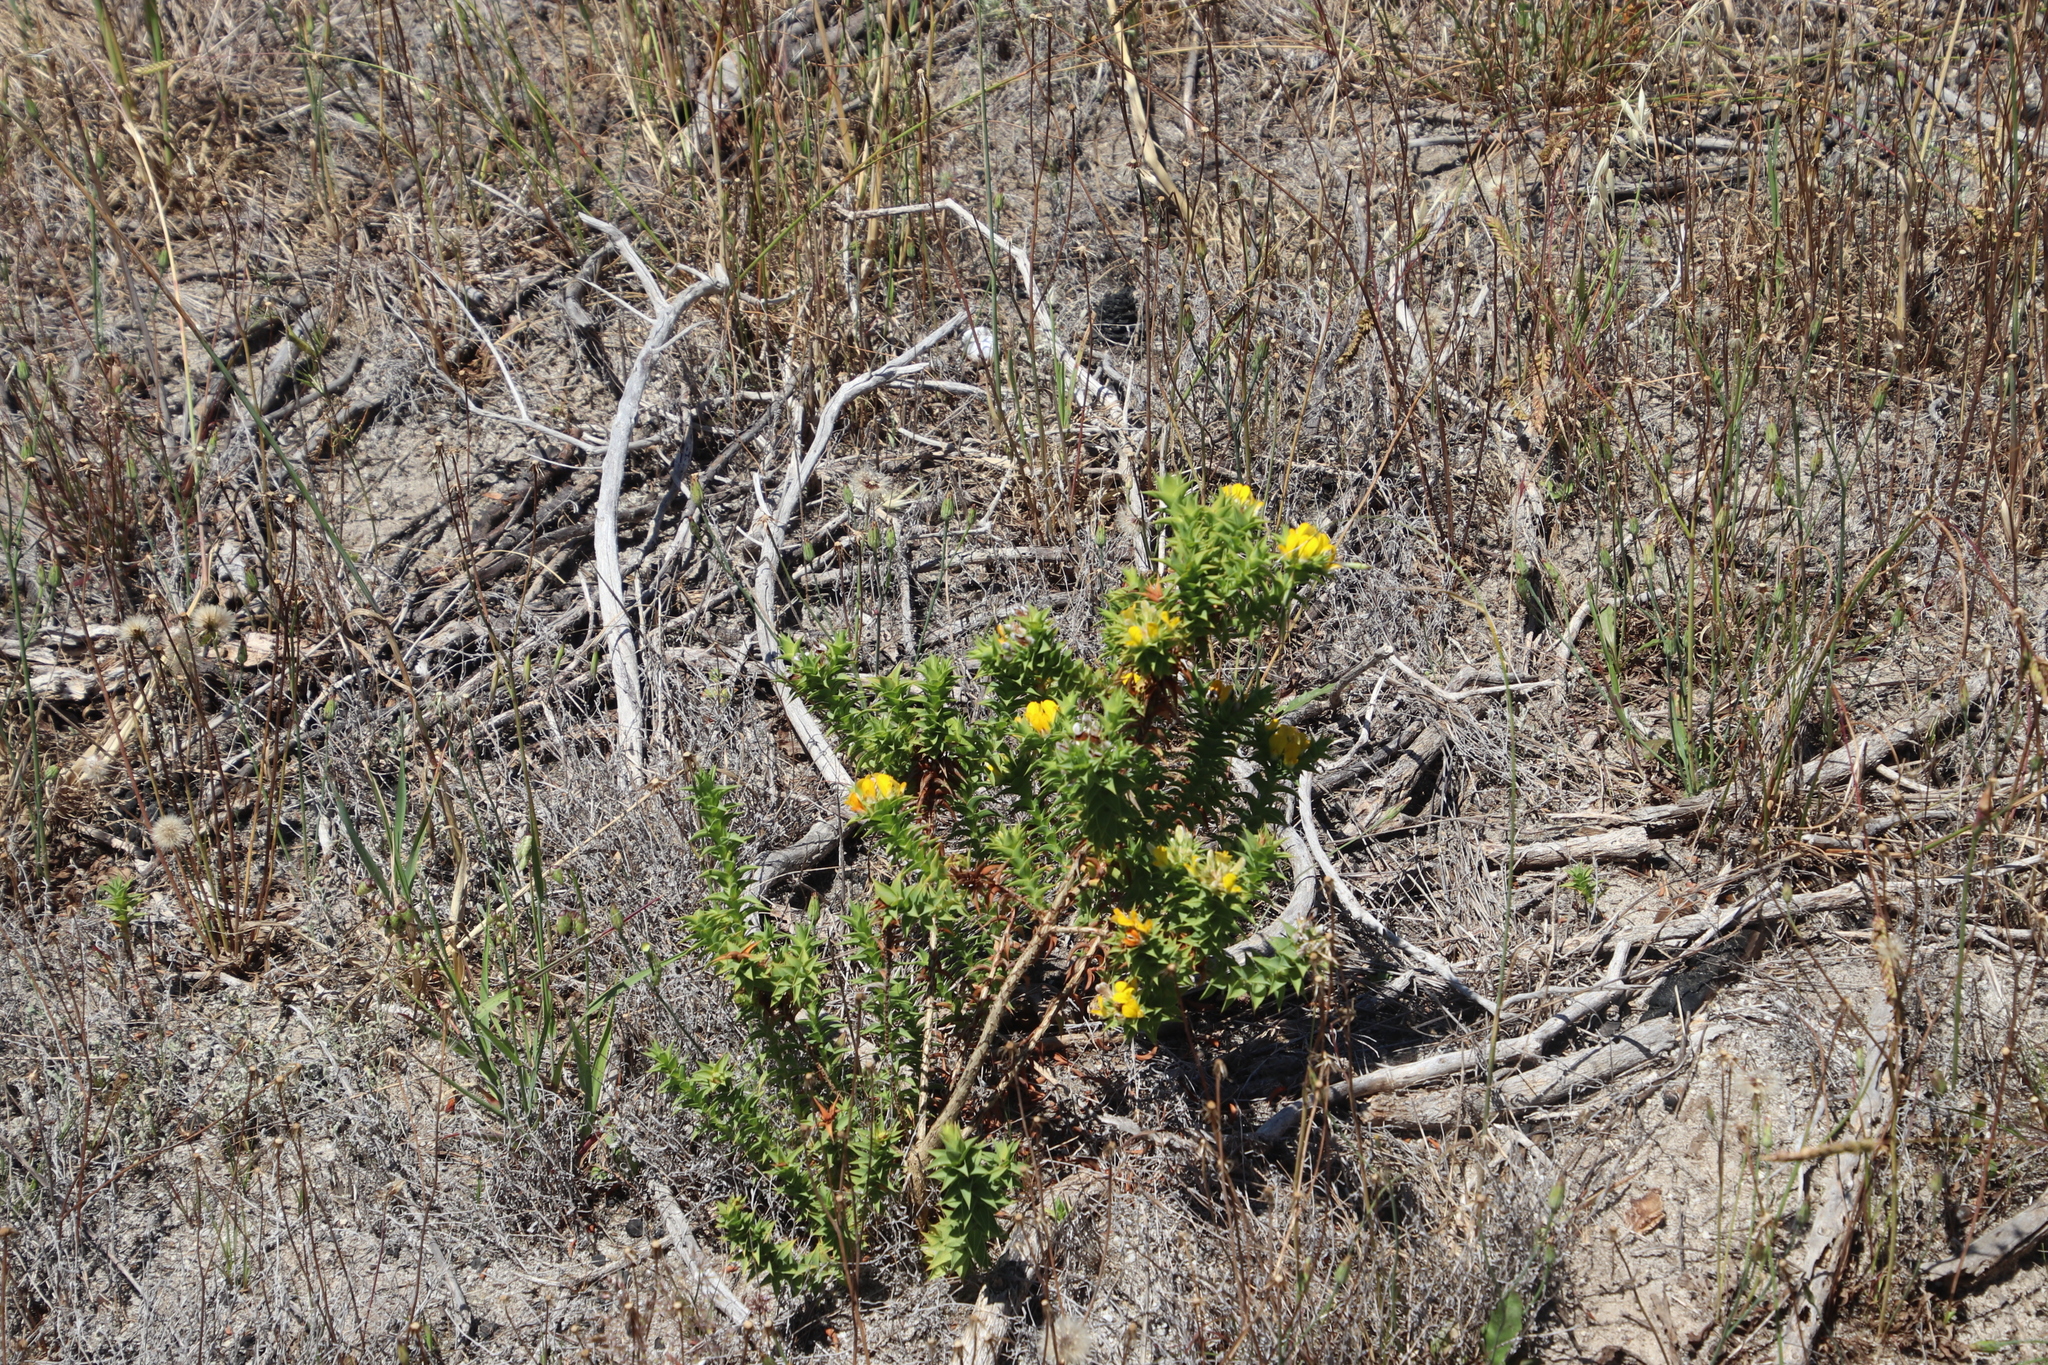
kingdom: Plantae
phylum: Tracheophyta
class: Magnoliopsida
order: Fabales
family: Fabaceae
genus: Aspalathus
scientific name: Aspalathus cordata
